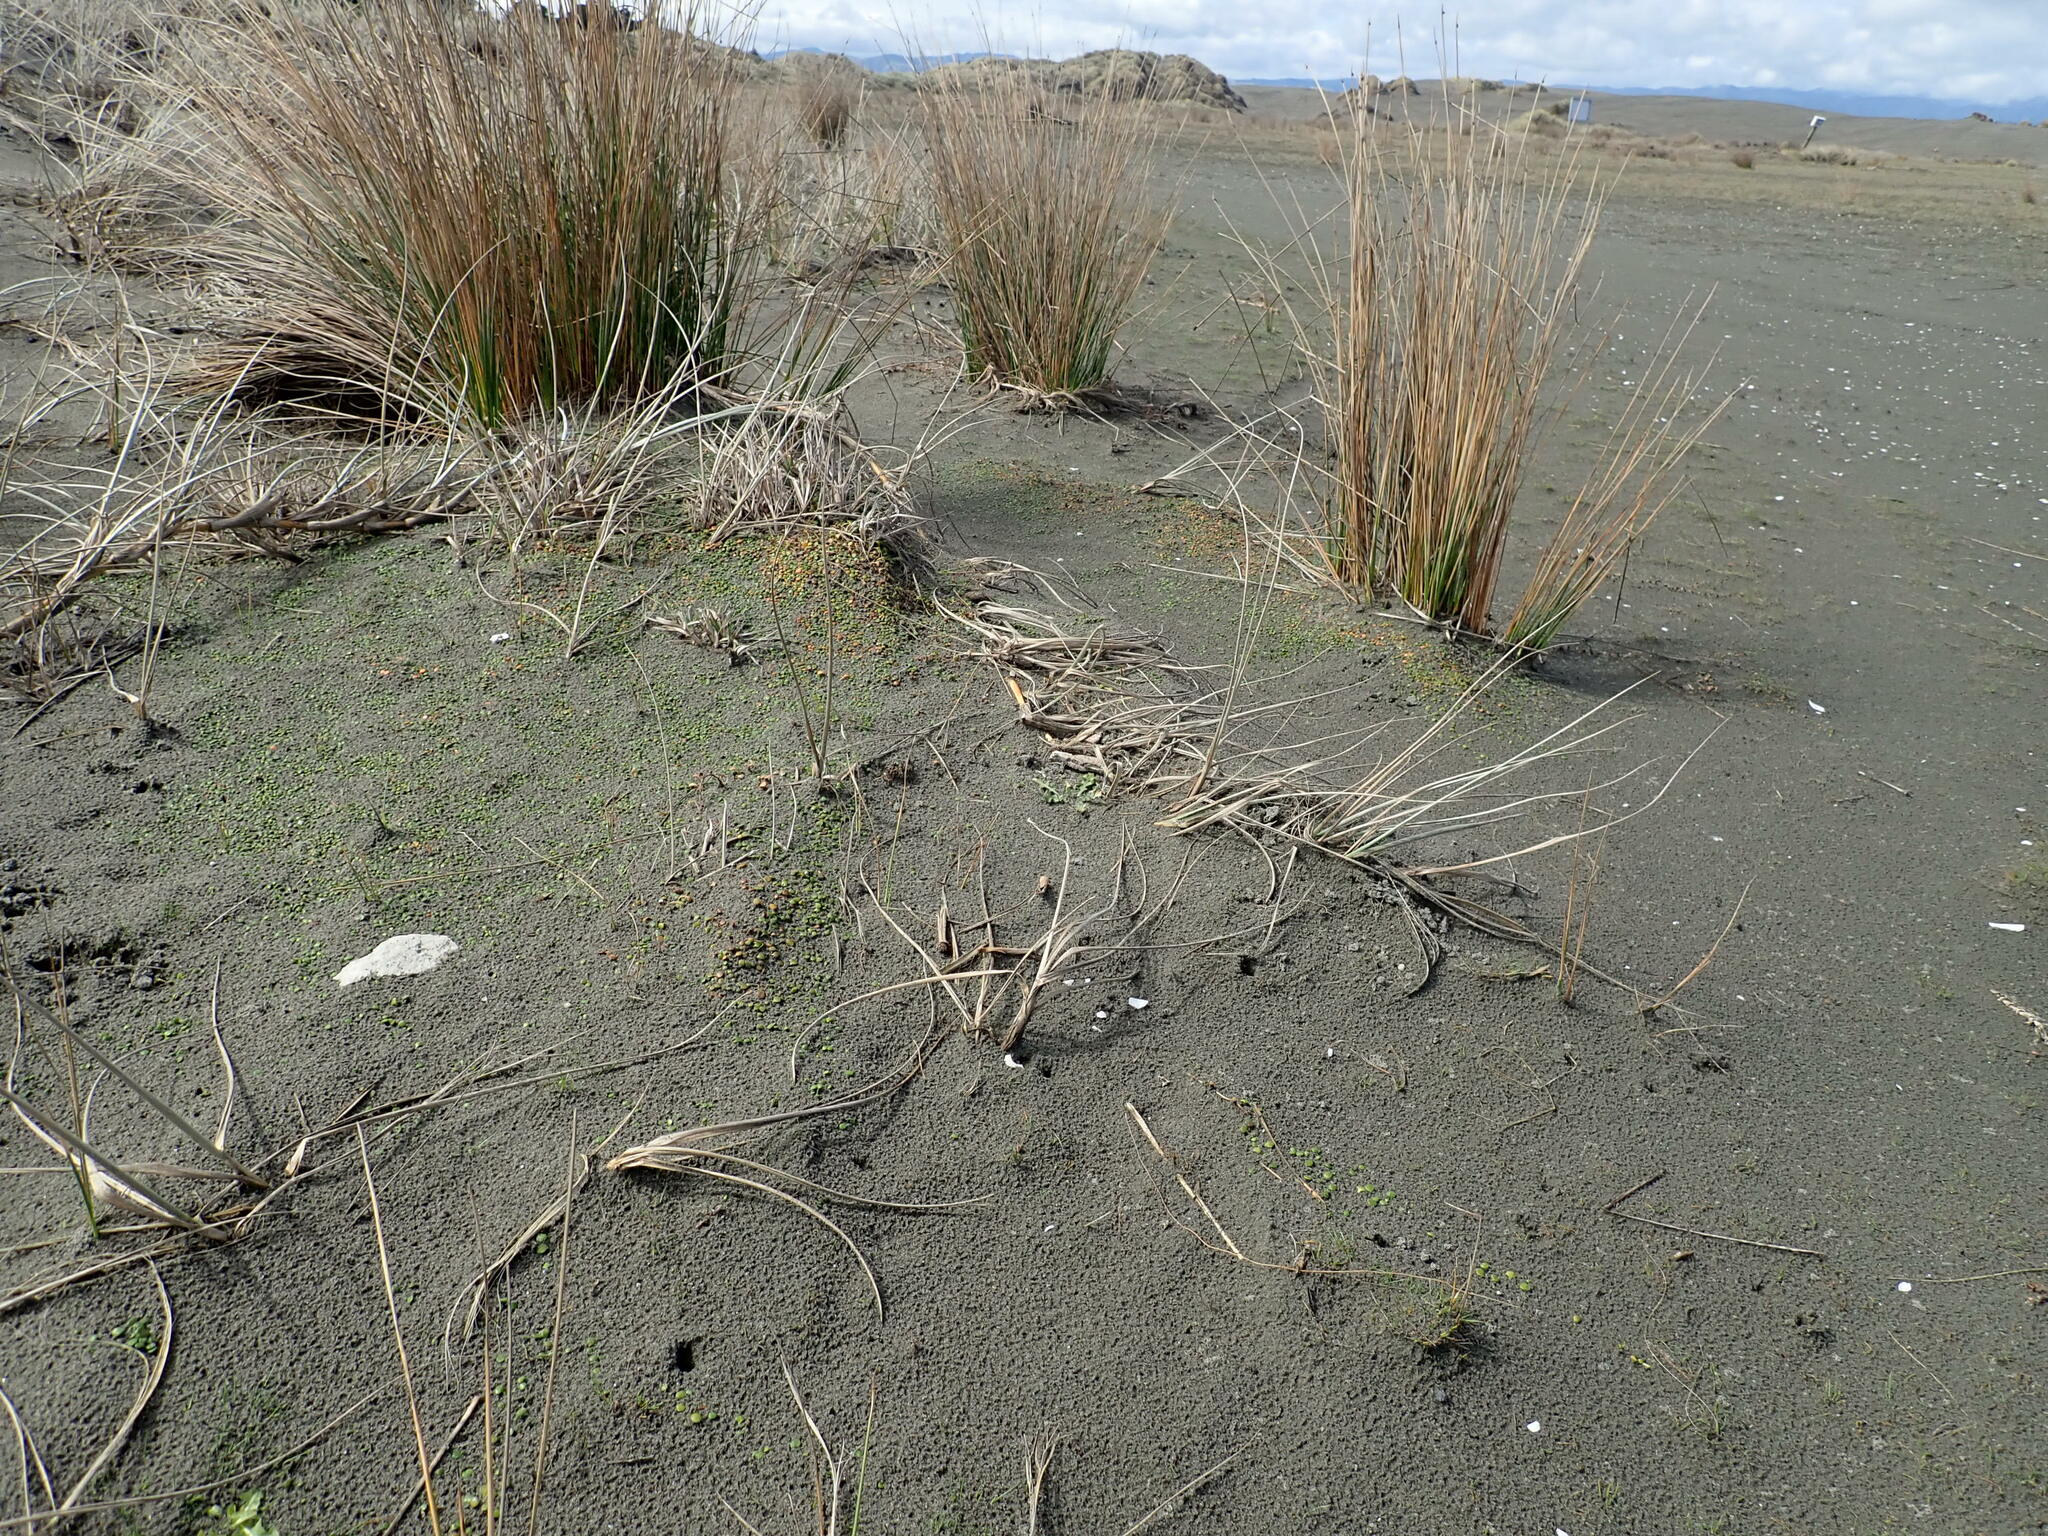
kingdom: Plantae
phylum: Tracheophyta
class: Magnoliopsida
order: Asterales
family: Goodeniaceae
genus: Goodenia
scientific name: Goodenia heenanii
